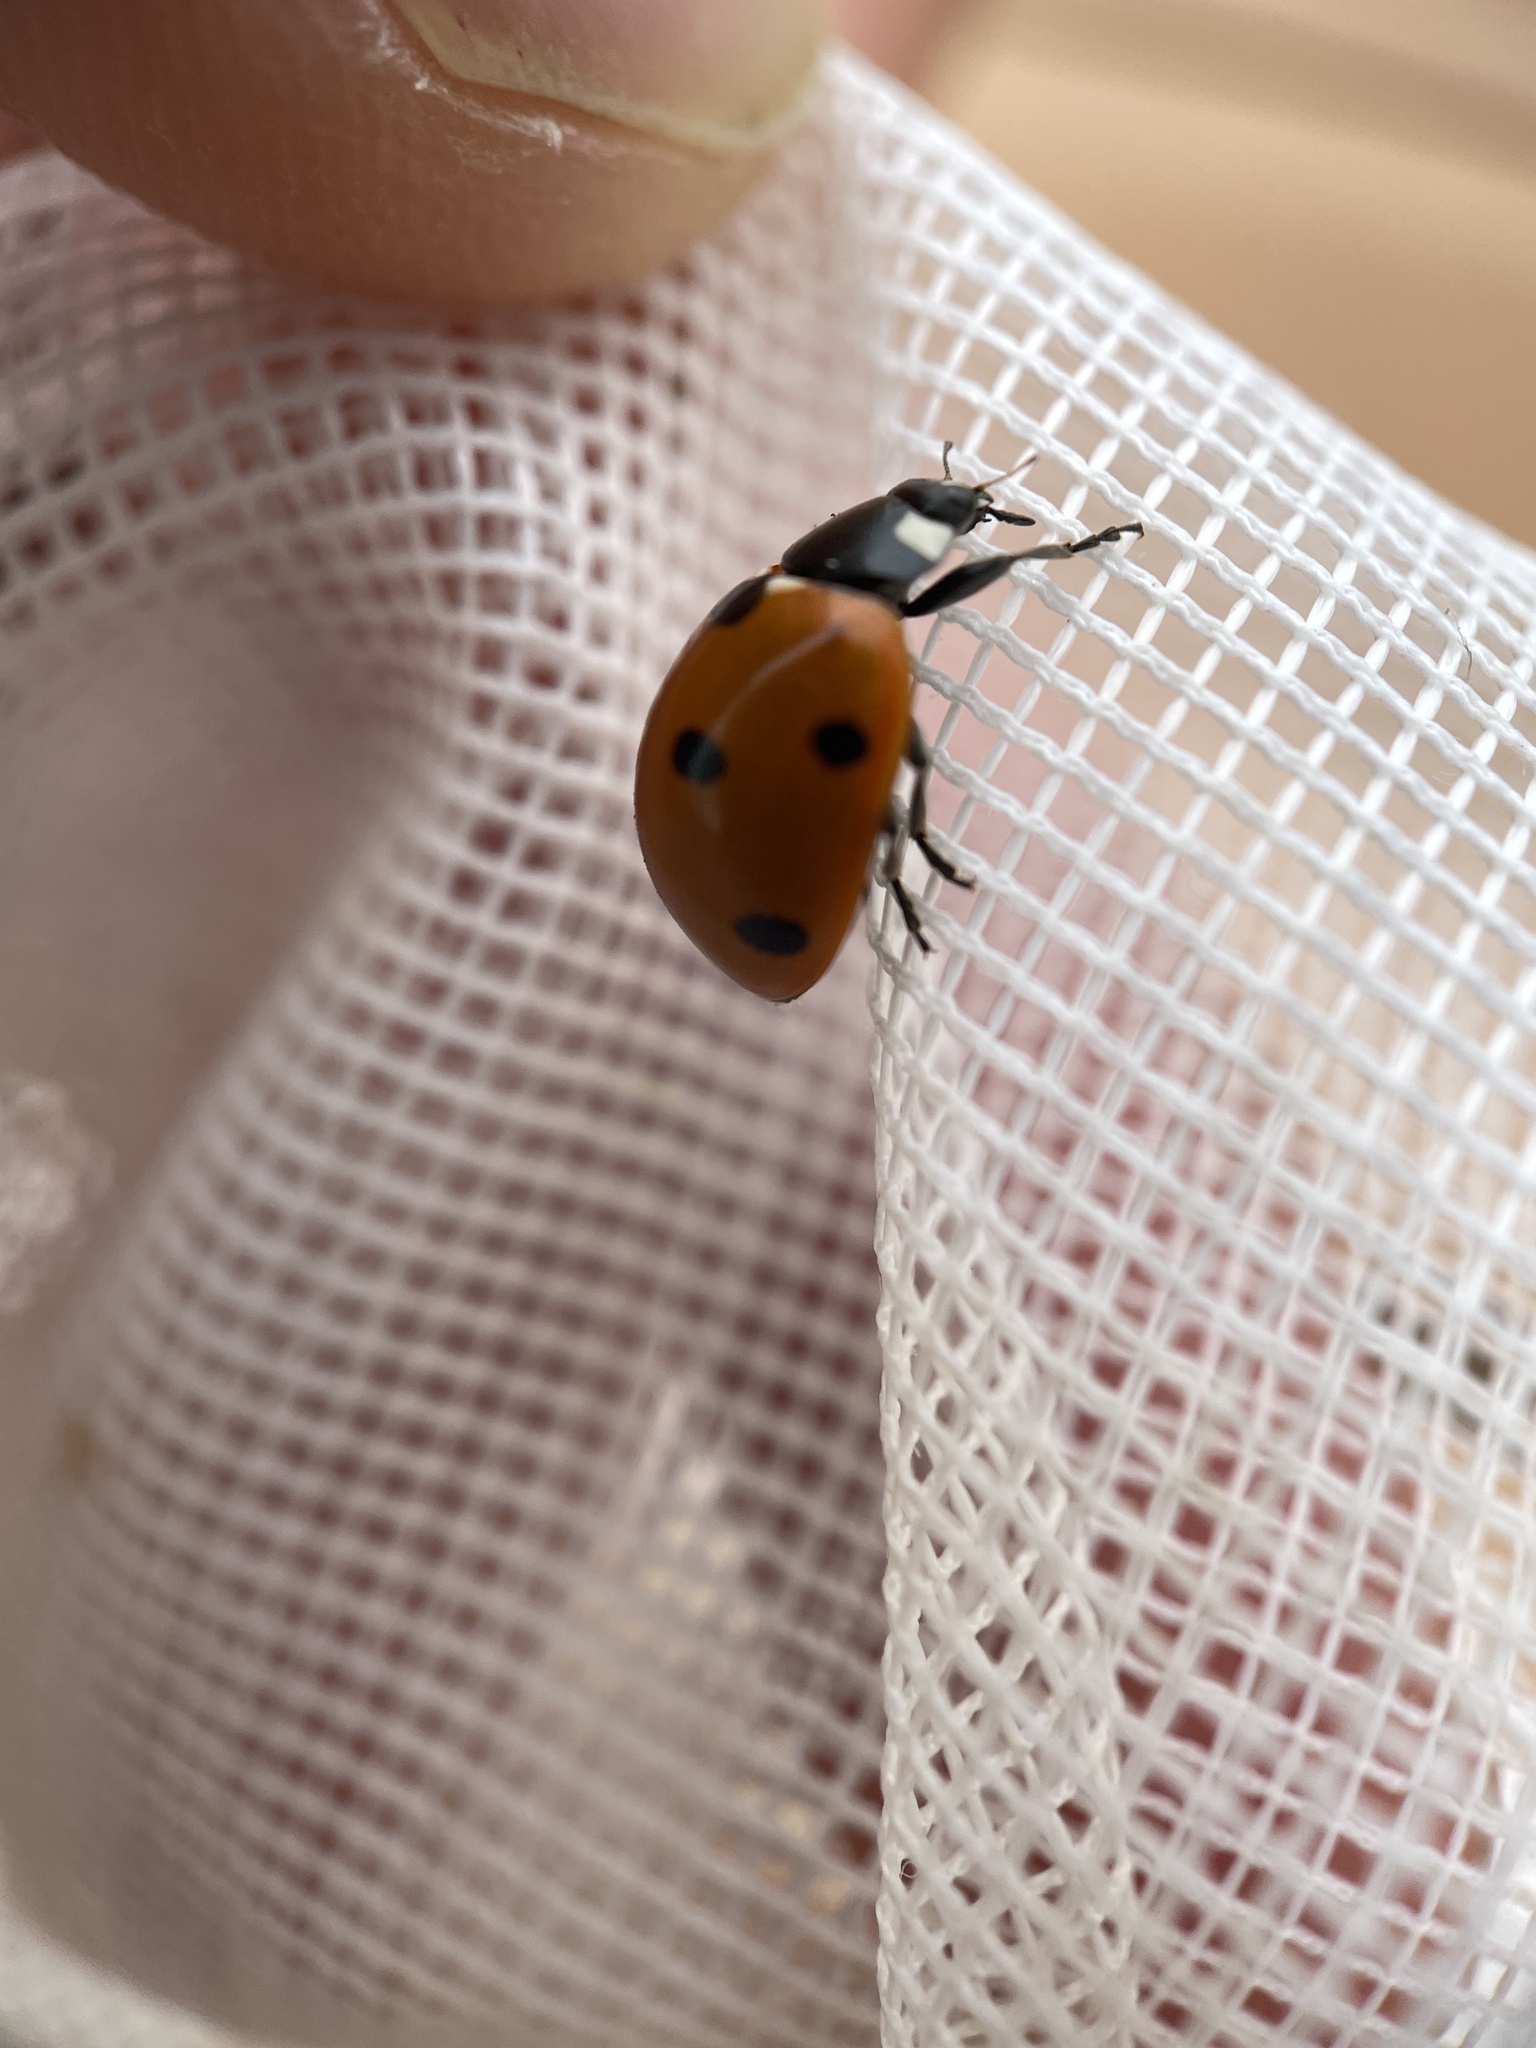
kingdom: Animalia
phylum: Arthropoda
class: Insecta
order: Coleoptera
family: Coccinellidae
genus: Coccinella
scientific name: Coccinella septempunctata
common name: Sevenspotted lady beetle
